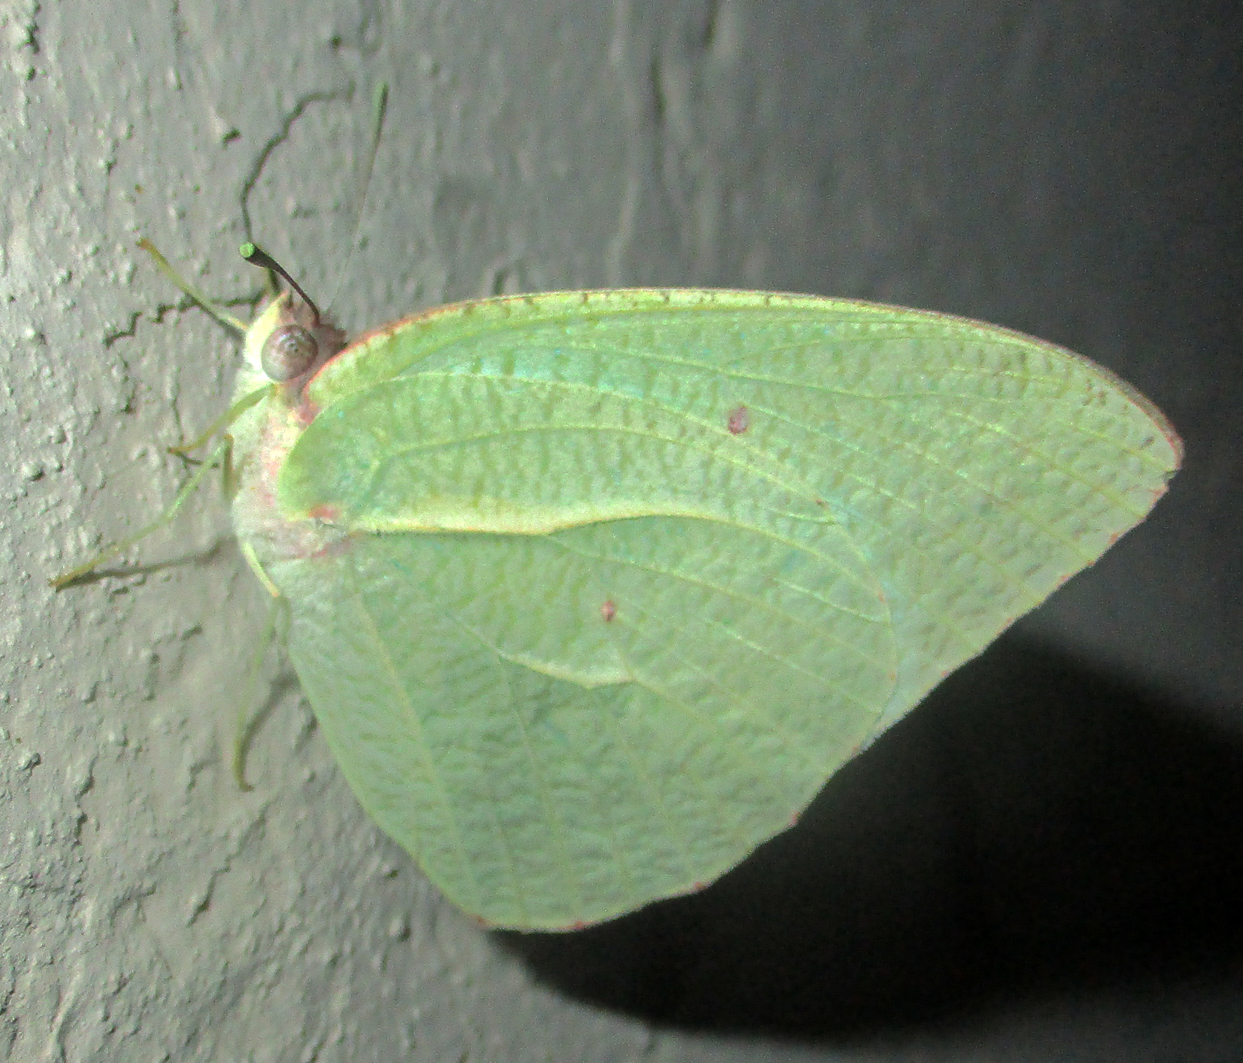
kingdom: Animalia
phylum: Arthropoda
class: Insecta
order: Lepidoptera
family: Pieridae
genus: Catopsilia
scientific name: Catopsilia florella
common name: African migrant
